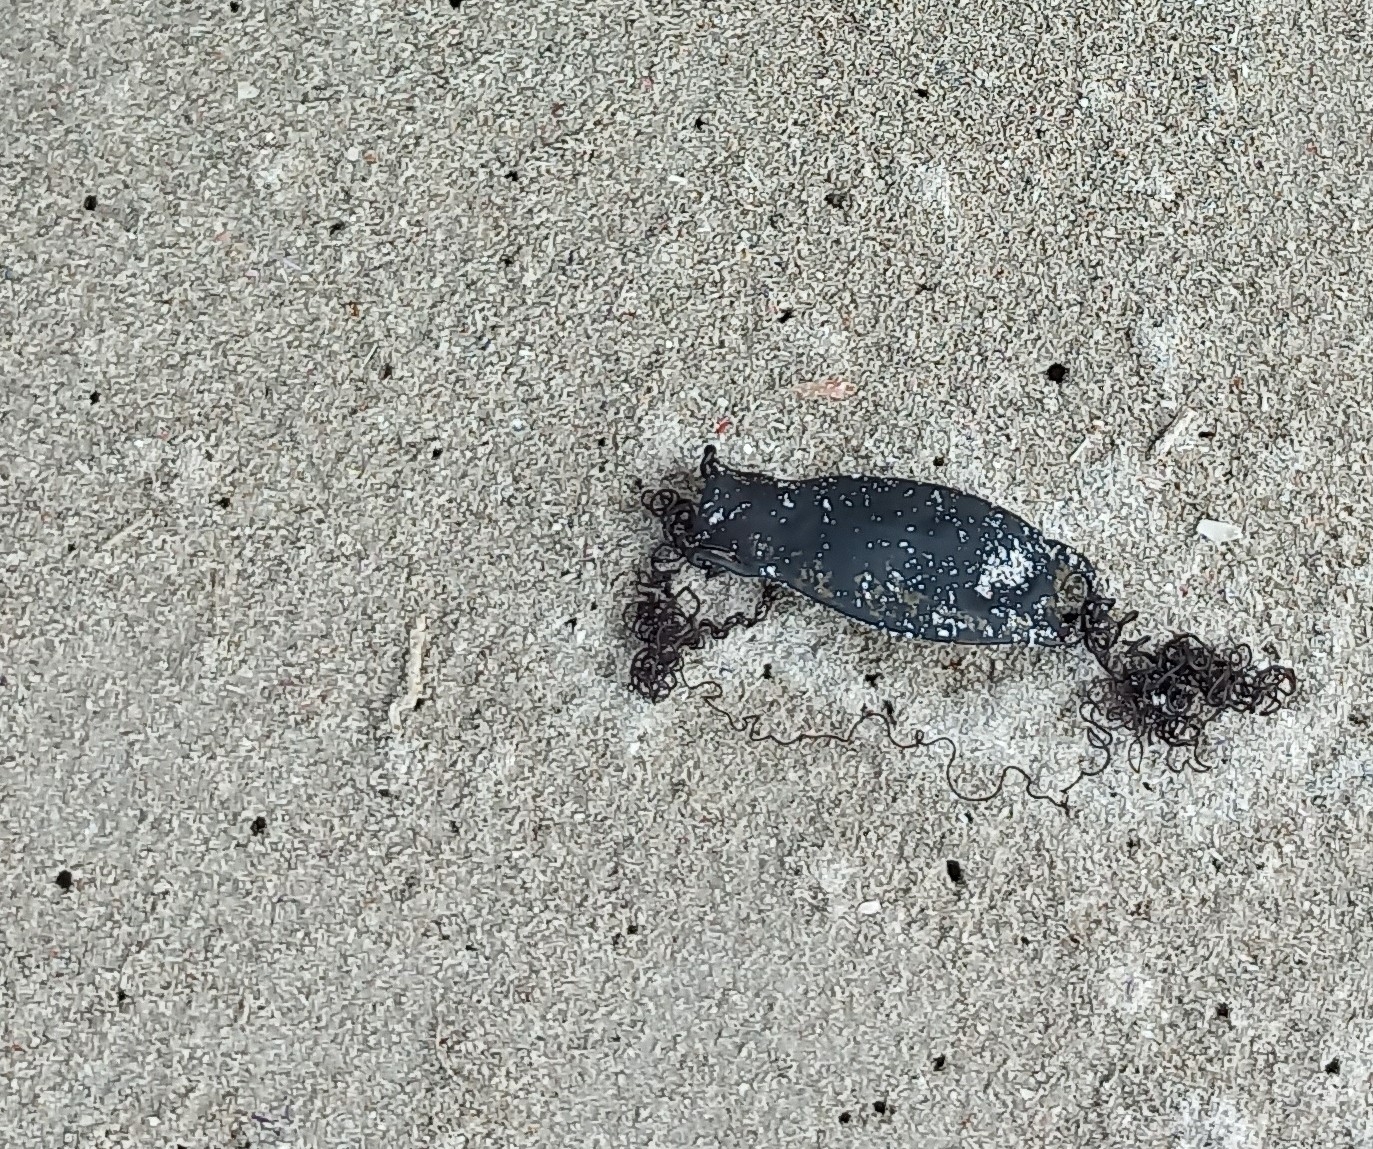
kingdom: Animalia
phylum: Chordata
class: Elasmobranchii
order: Carcharhiniformes
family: Scyliorhinidae
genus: Haploblepharus
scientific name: Haploblepharus pictus
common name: Dark shyshark
